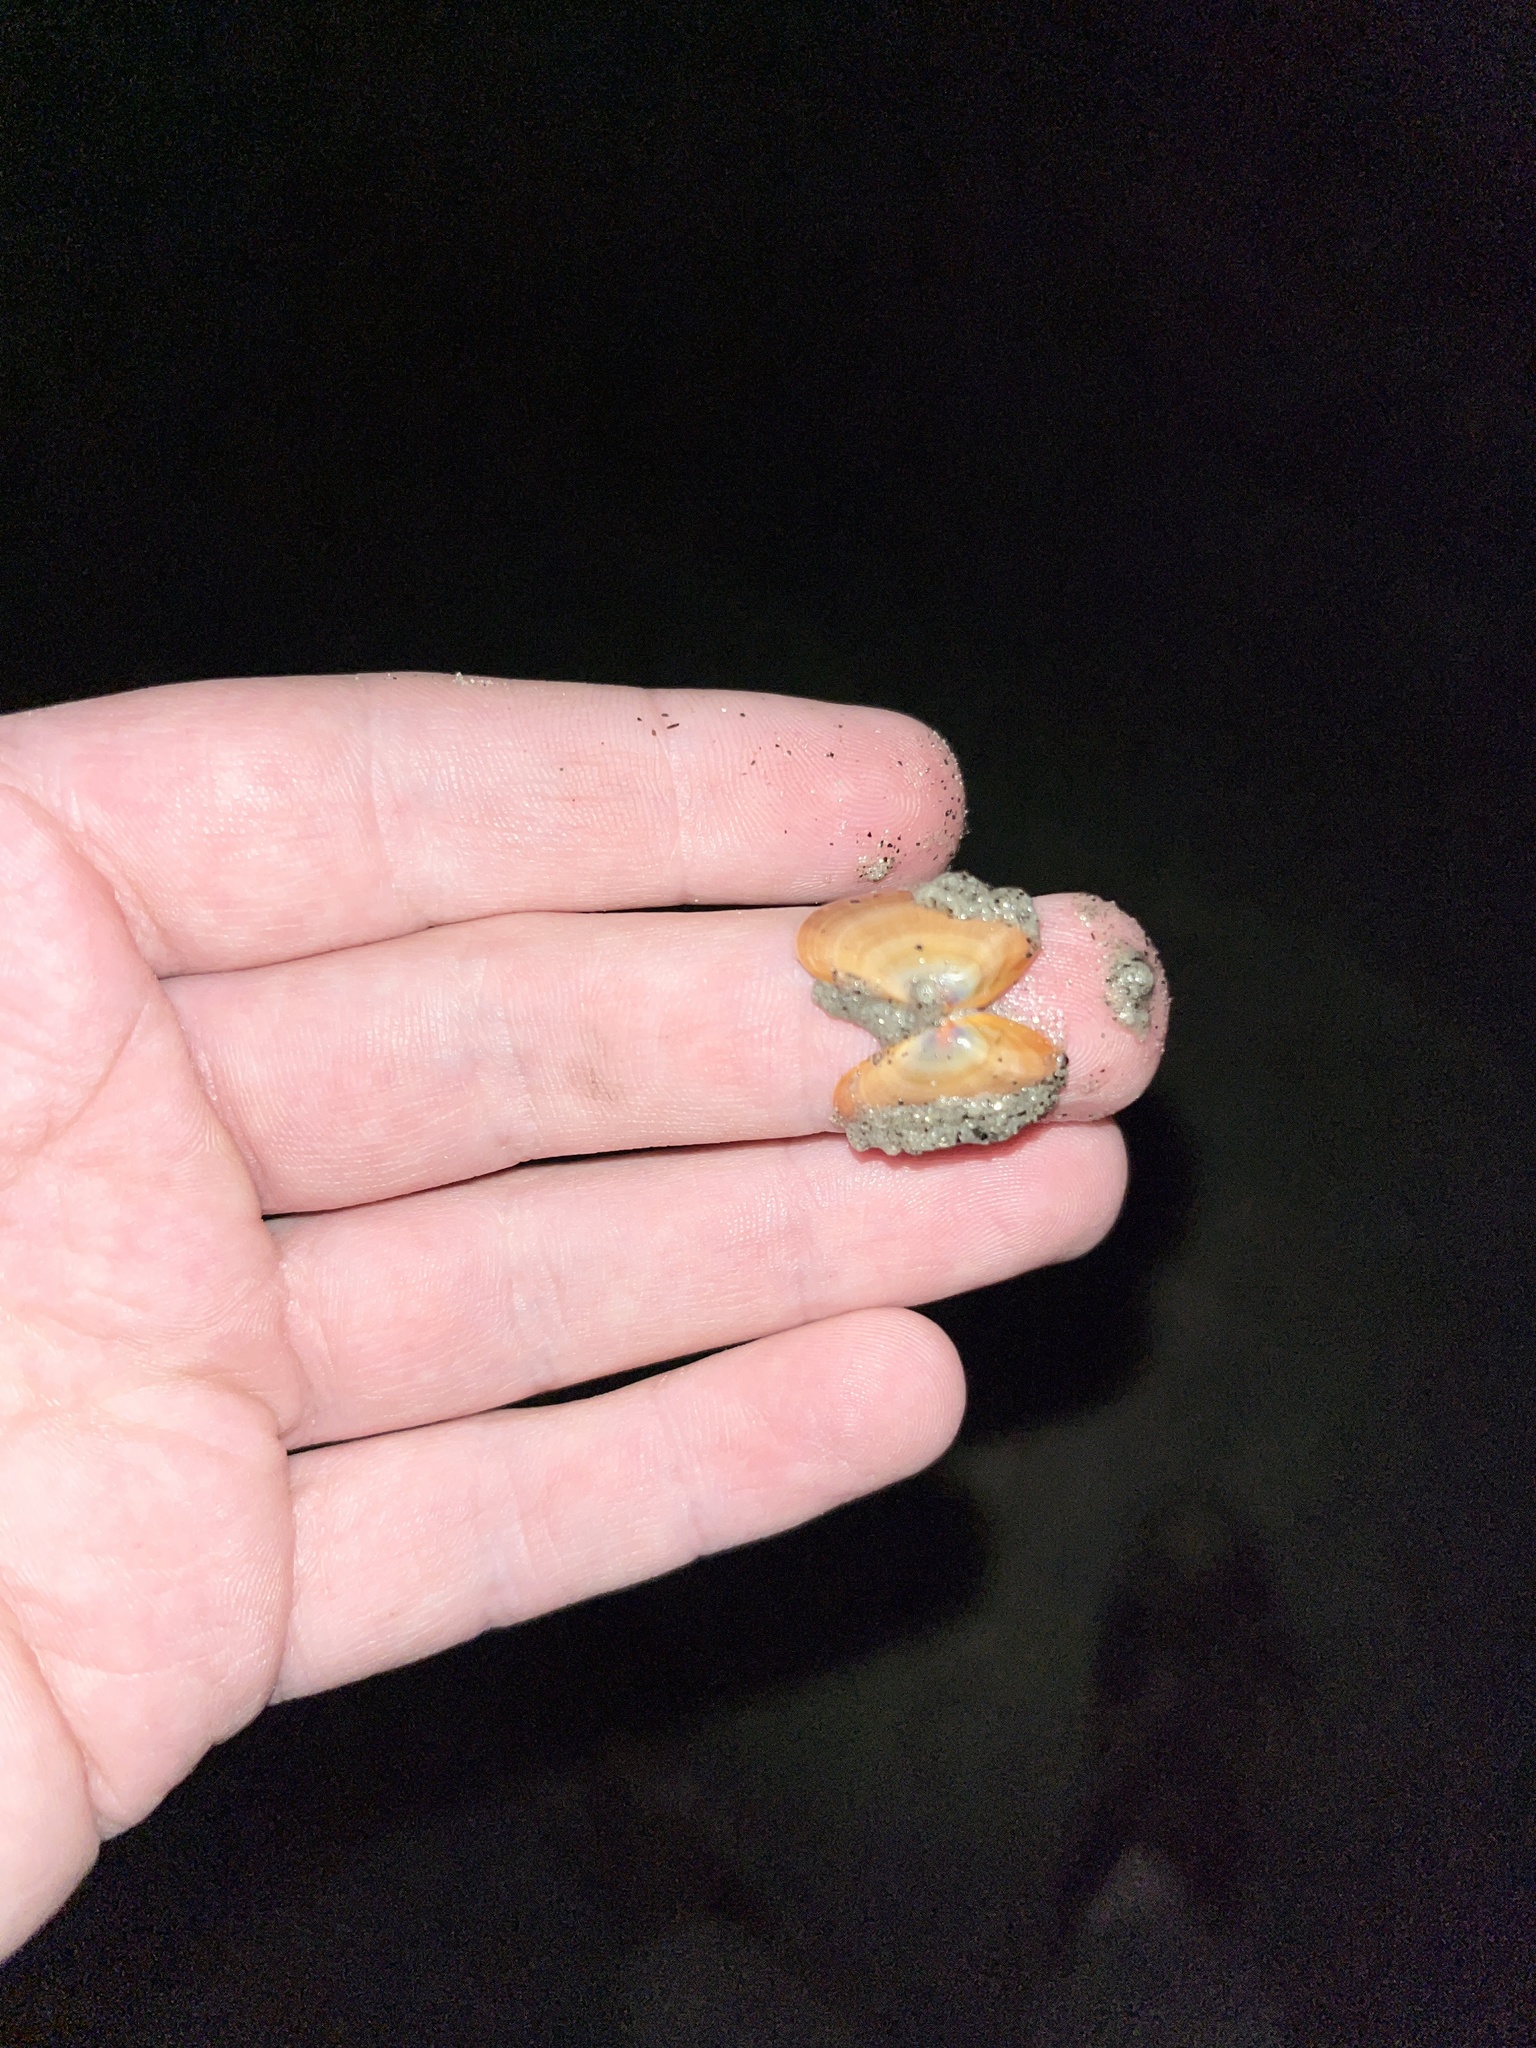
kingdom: Animalia
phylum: Mollusca
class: Bivalvia
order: Cardiida
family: Donacidae
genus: Donax
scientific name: Donax gouldii
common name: Gould beanclam
